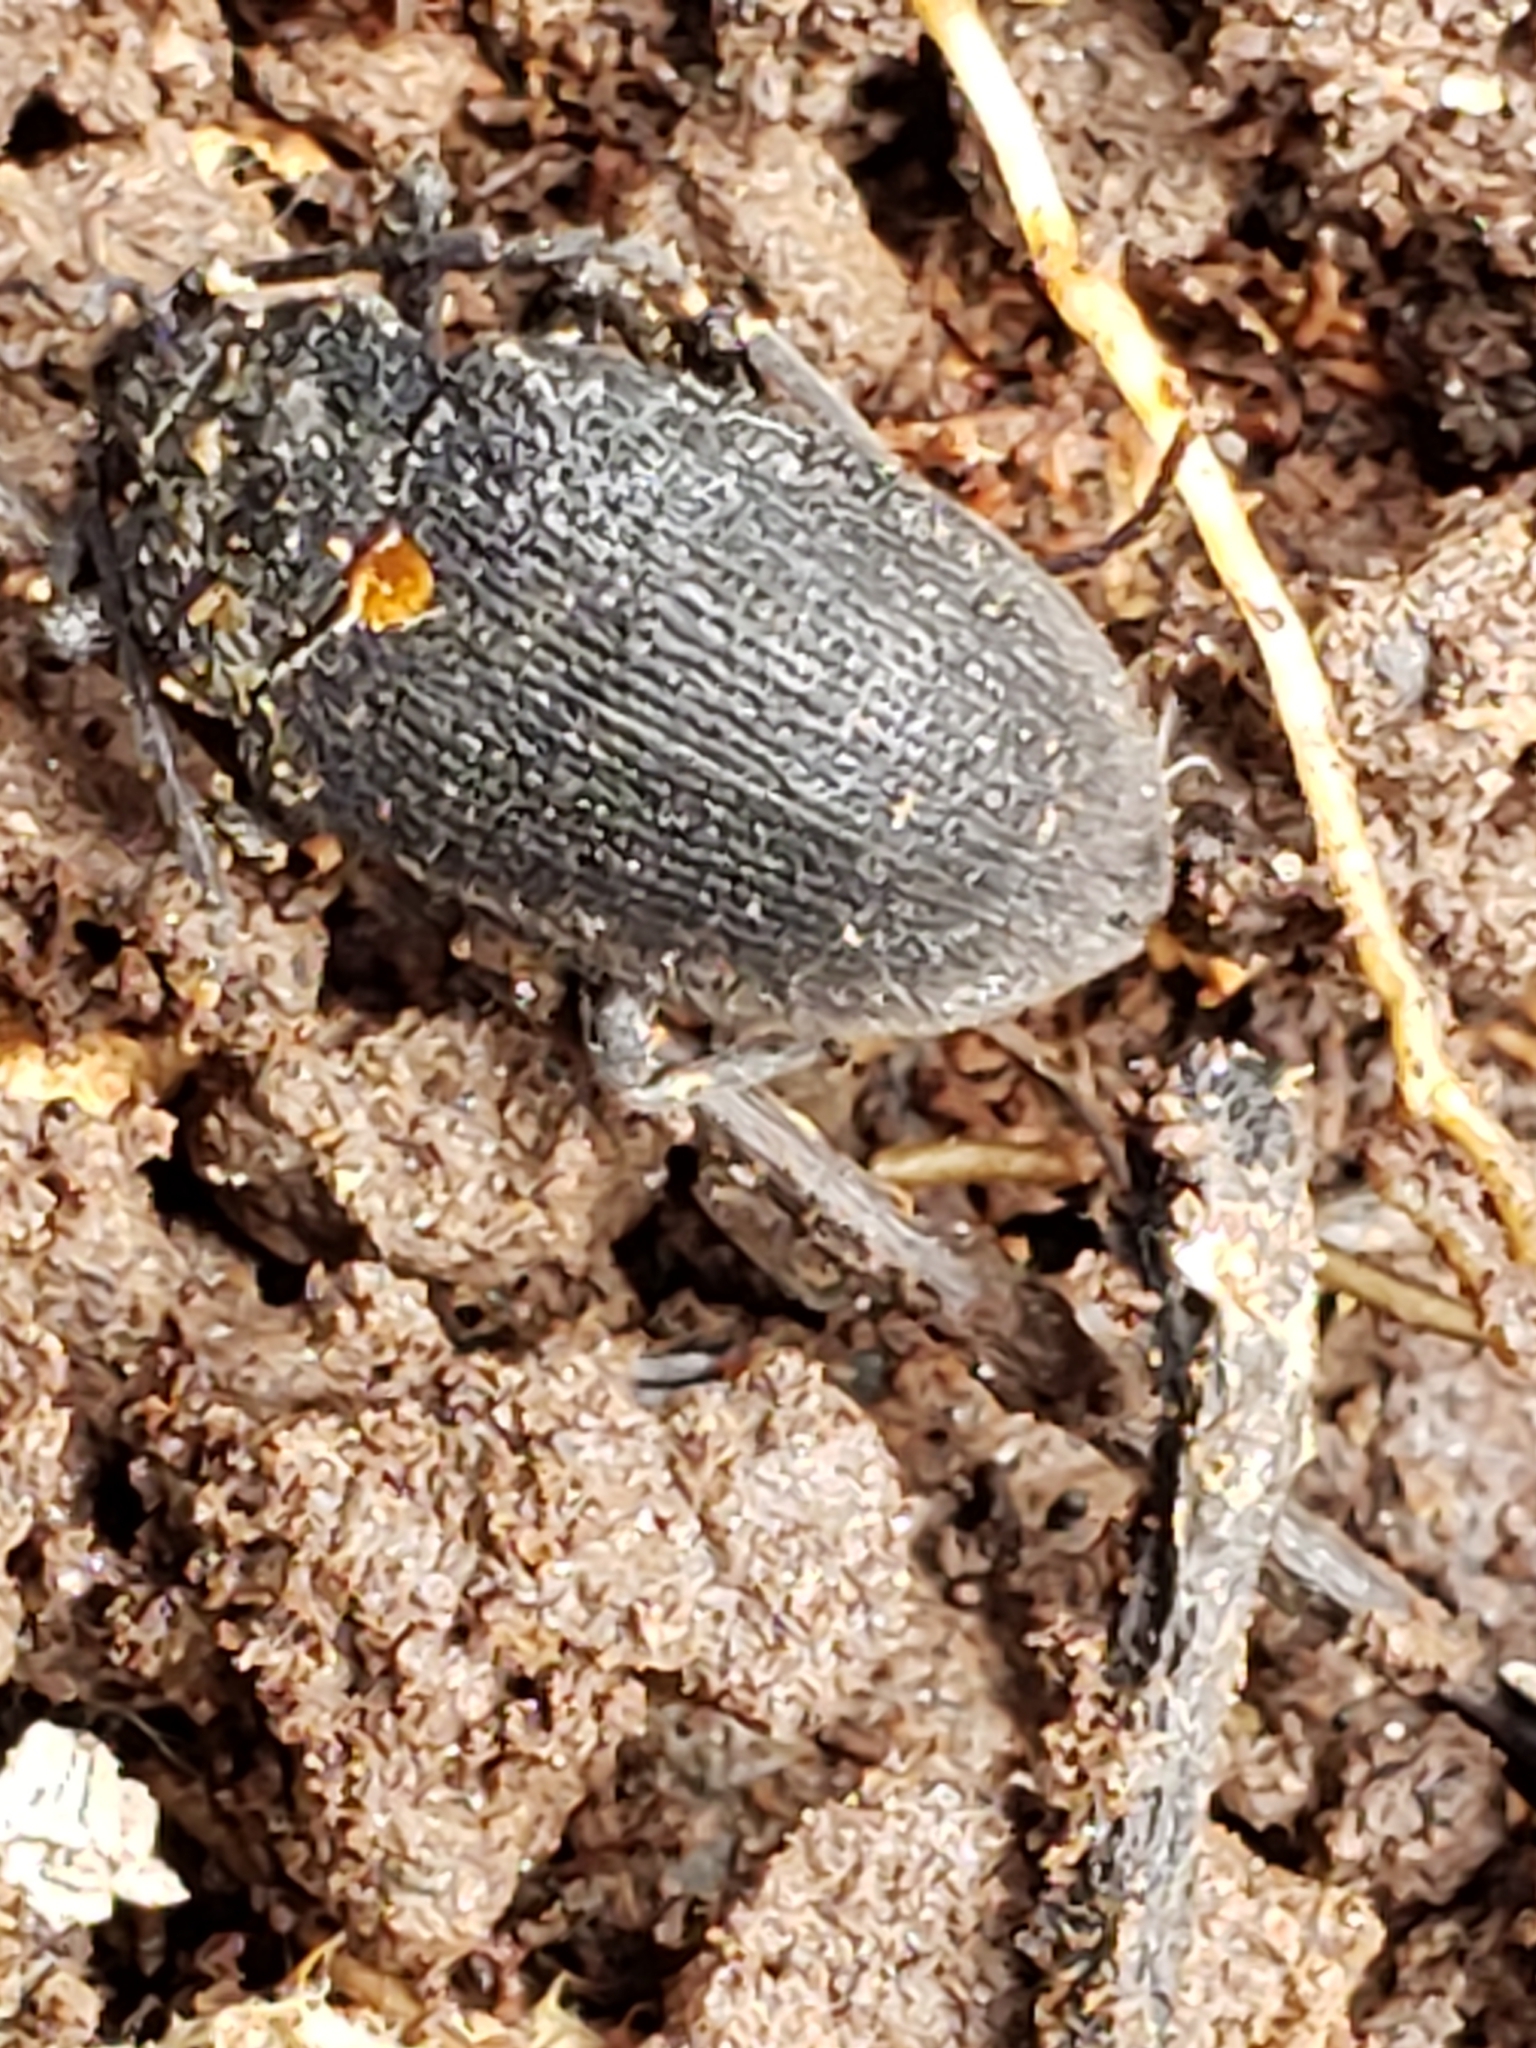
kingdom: Animalia
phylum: Arthropoda
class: Insecta
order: Coleoptera
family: Tetratomidae
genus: Penthe
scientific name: Penthe obliquata
